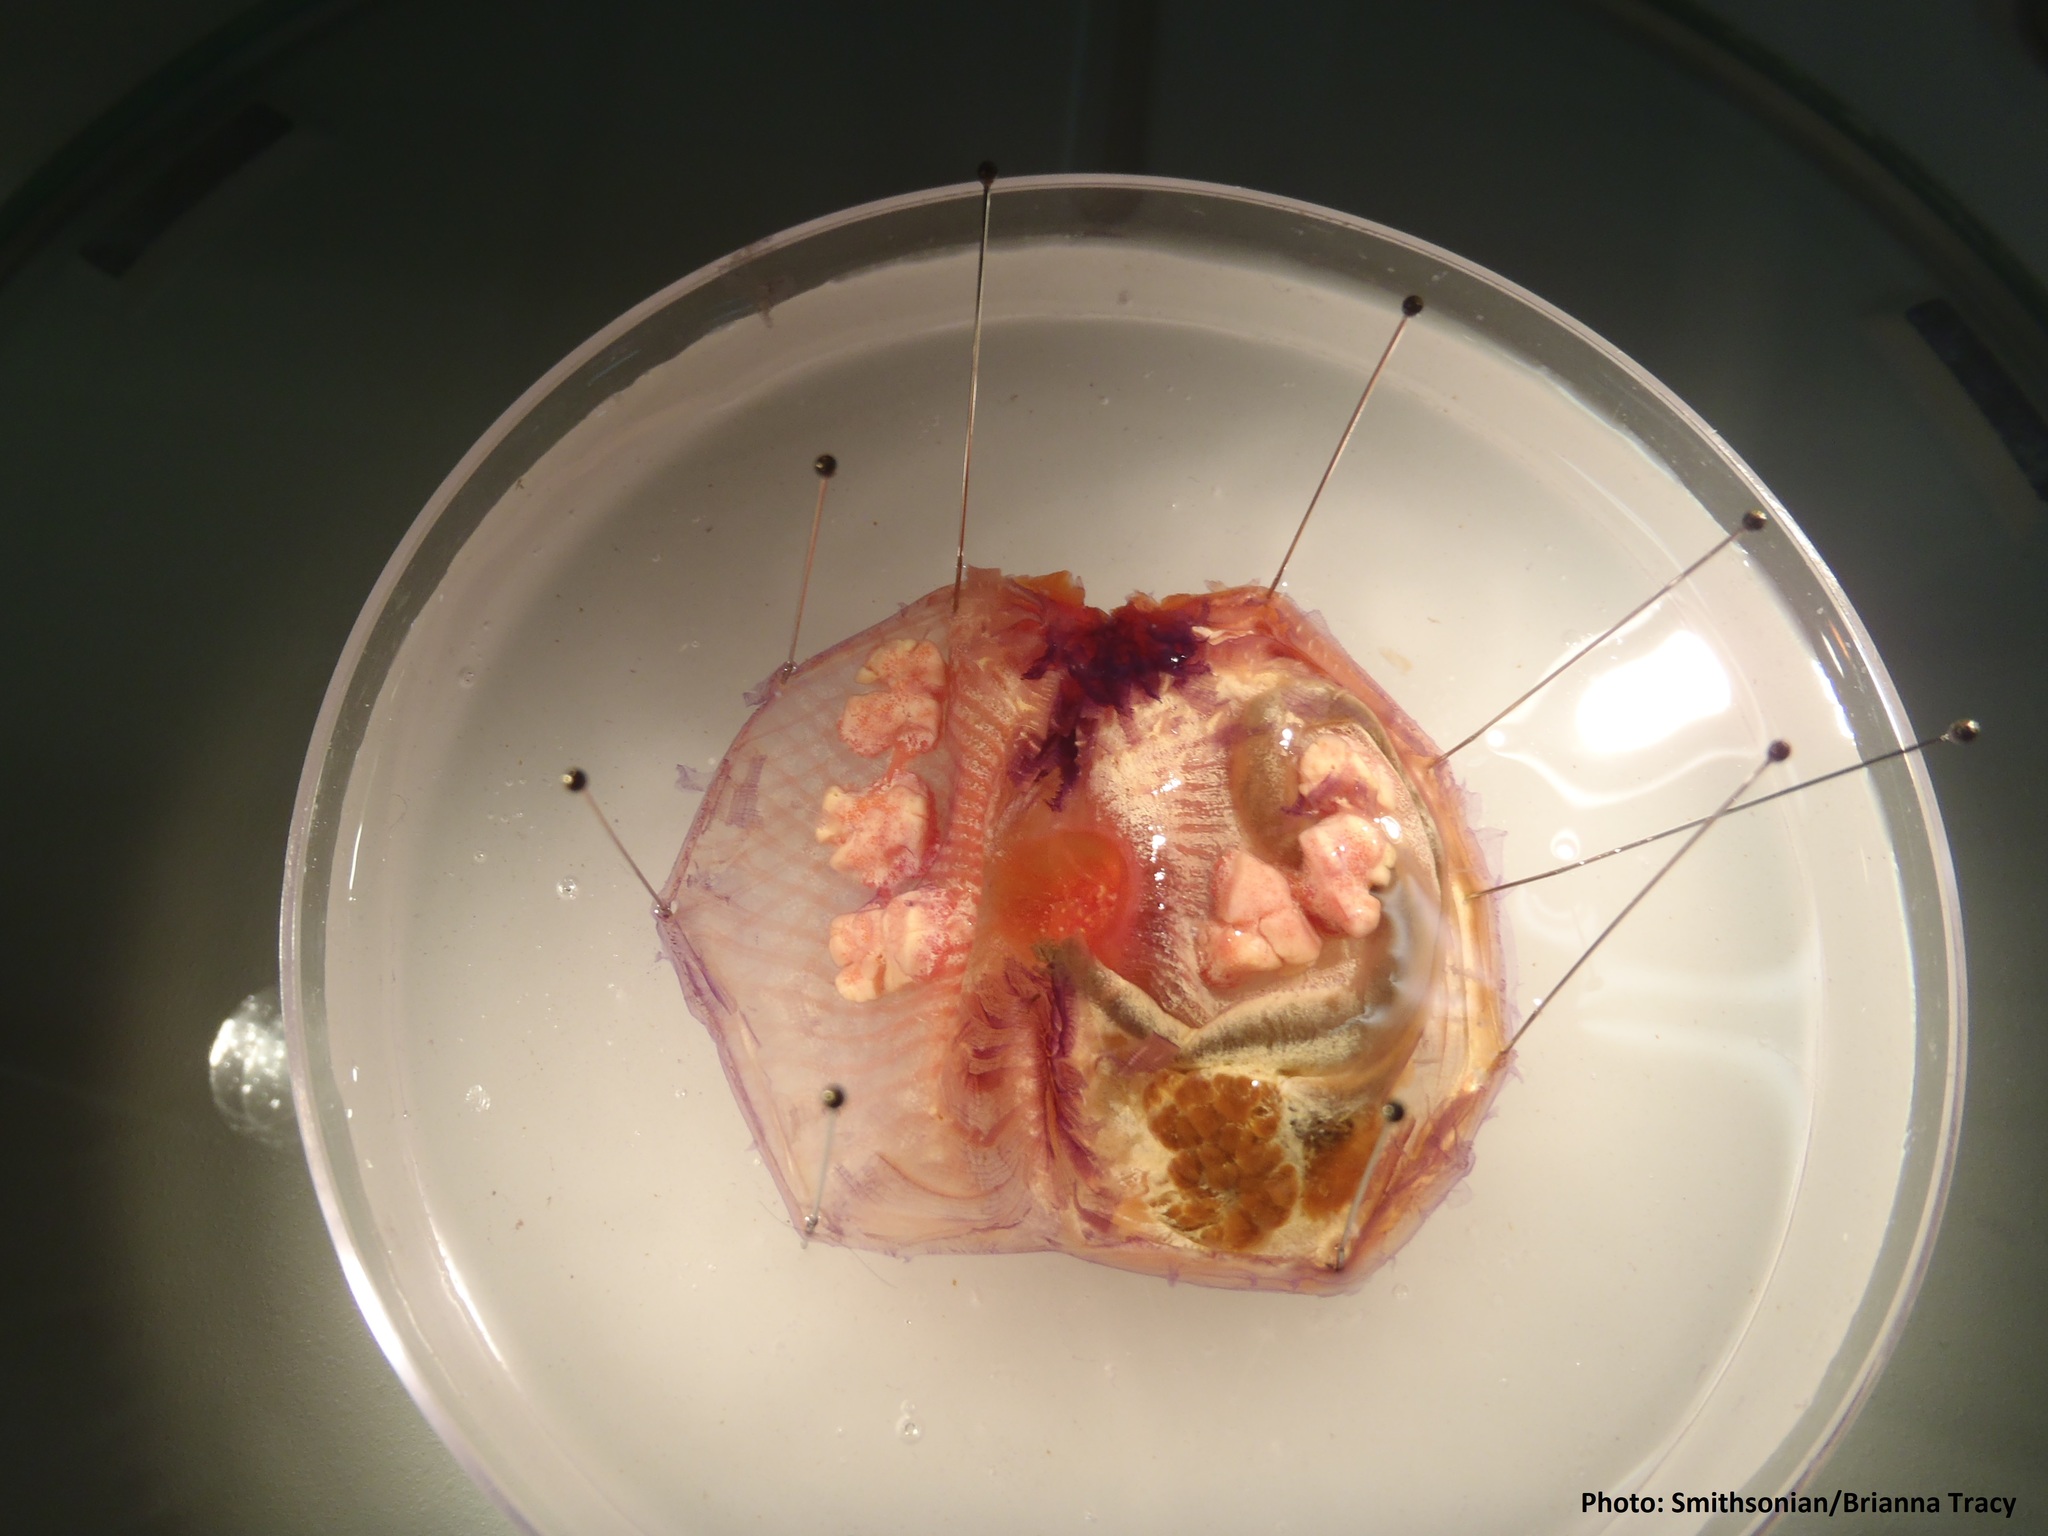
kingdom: Animalia
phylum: Chordata
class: Ascidiacea
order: Stolidobranchia
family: Pyuridae
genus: Microcosmus
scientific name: Microcosmus squamiger
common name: Scaly tunicate
